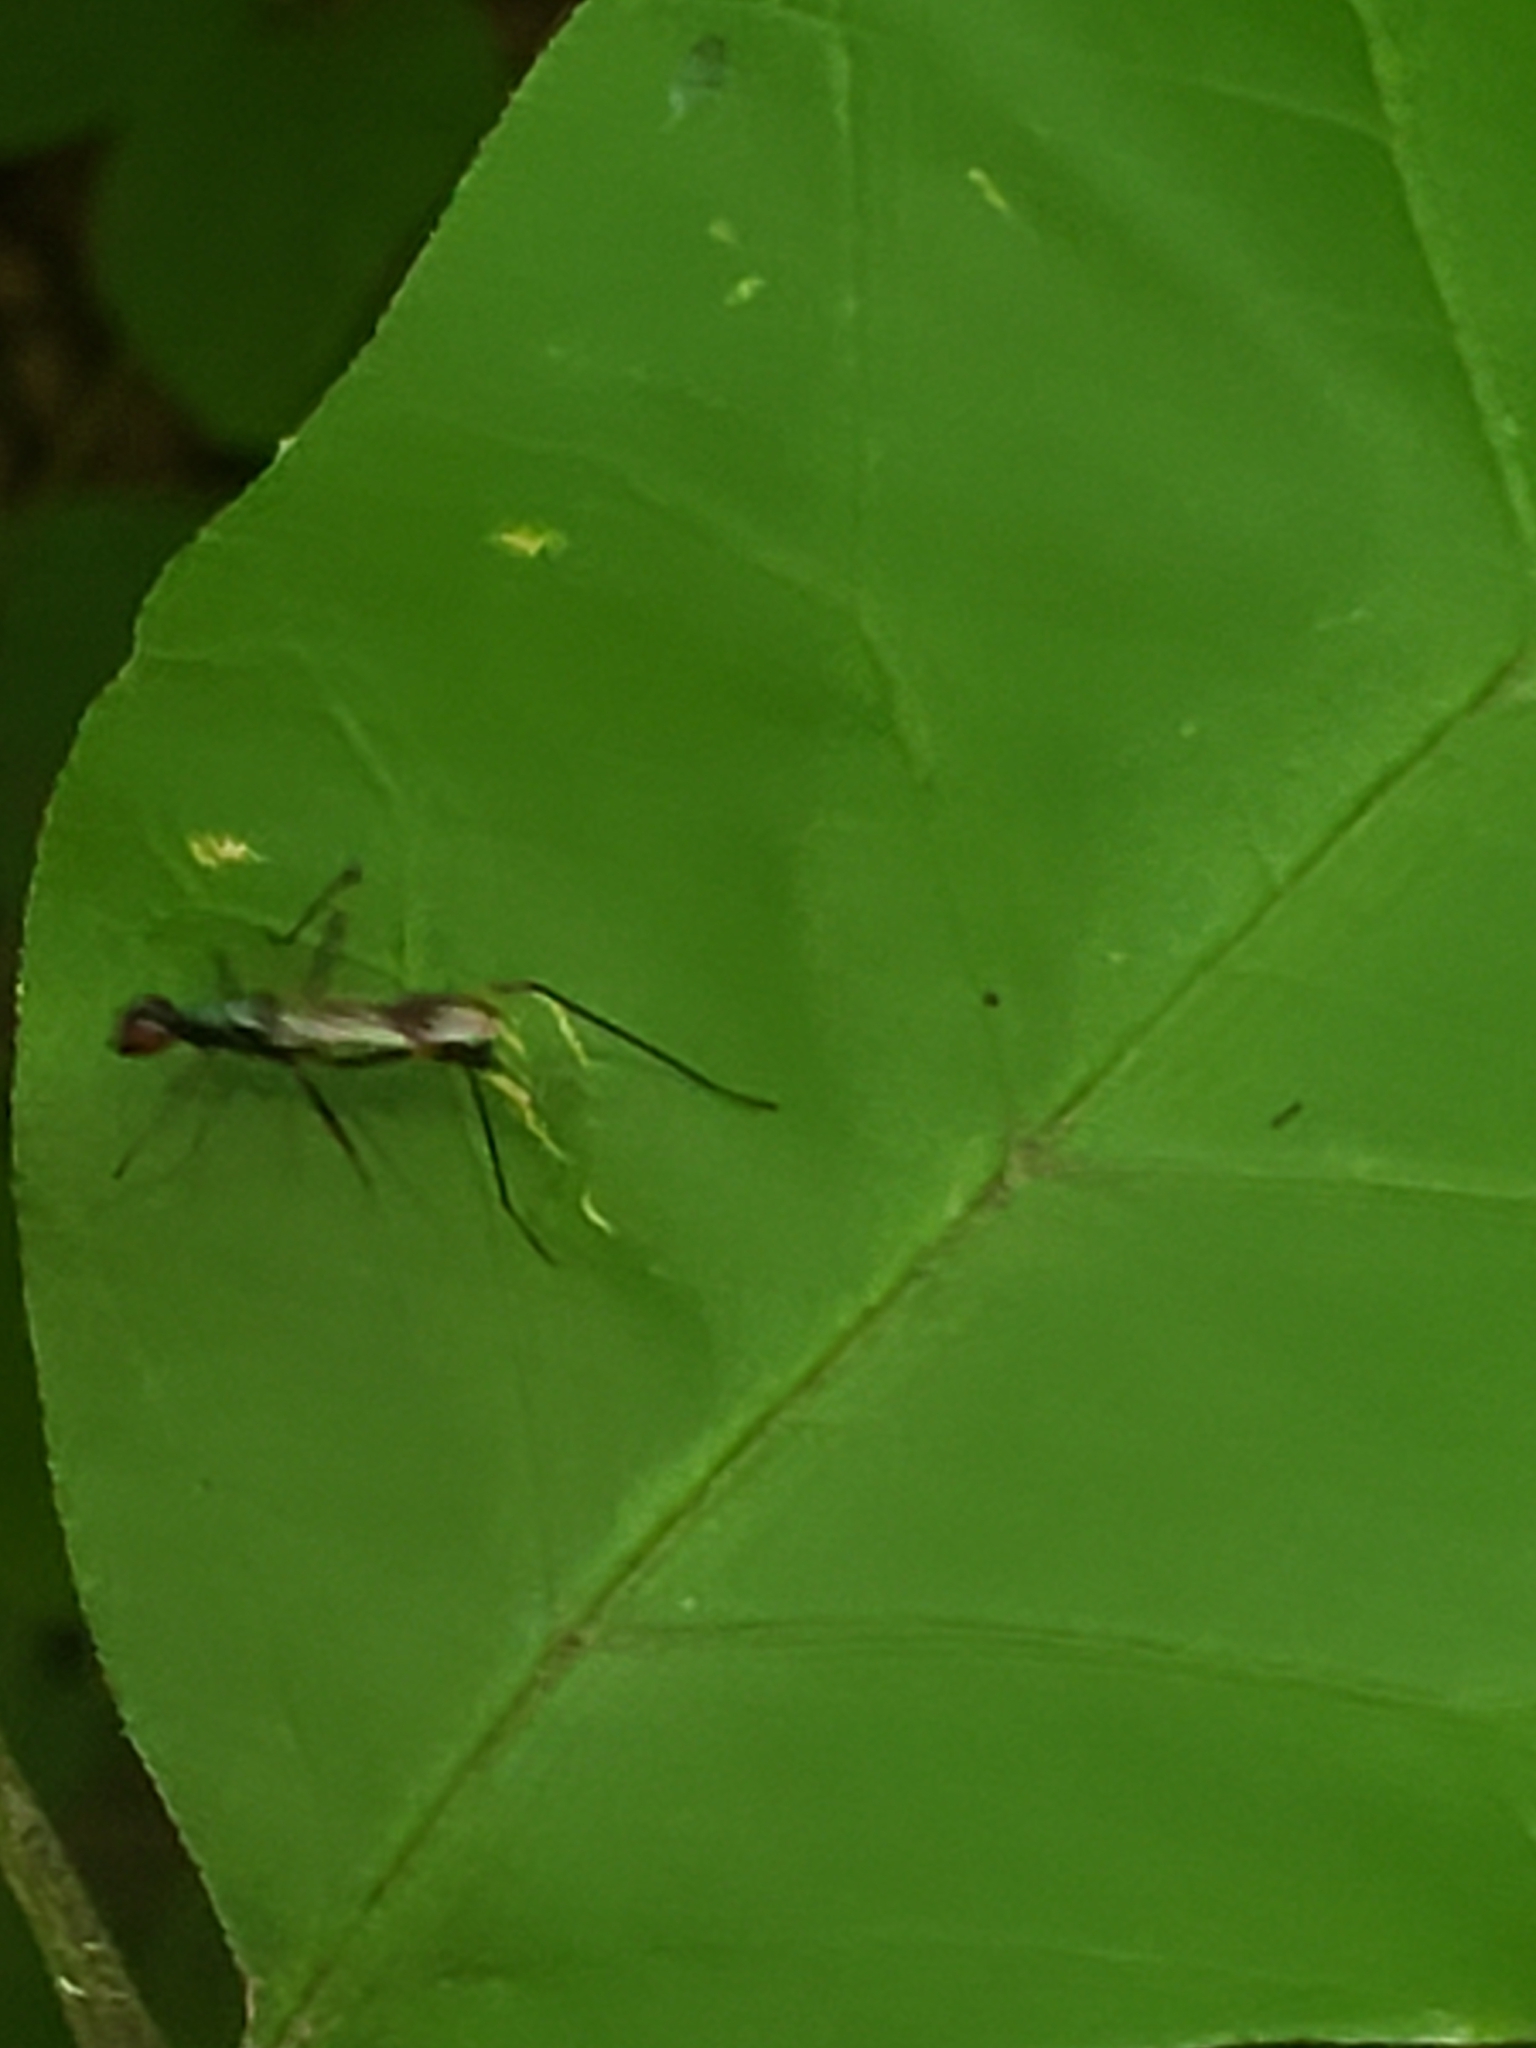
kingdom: Animalia
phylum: Arthropoda
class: Insecta
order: Diptera
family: Micropezidae
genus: Rainieria
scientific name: Rainieria antennaepes
